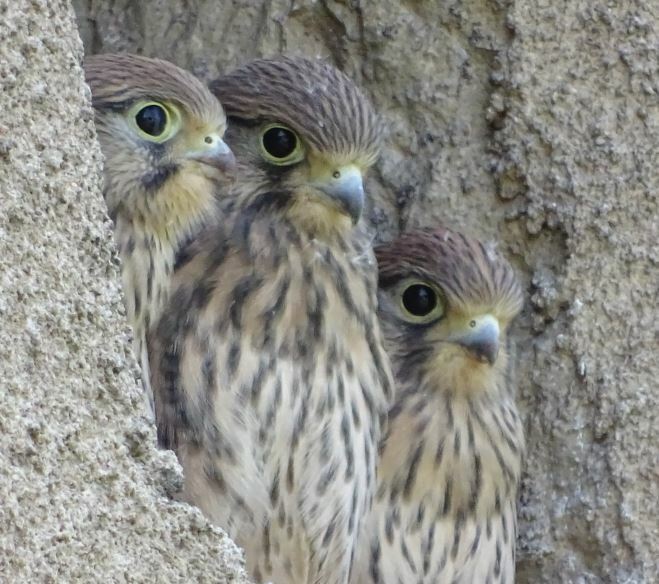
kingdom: Animalia
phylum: Chordata
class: Aves
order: Falconiformes
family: Falconidae
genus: Falco
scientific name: Falco tinnunculus
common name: Common kestrel
